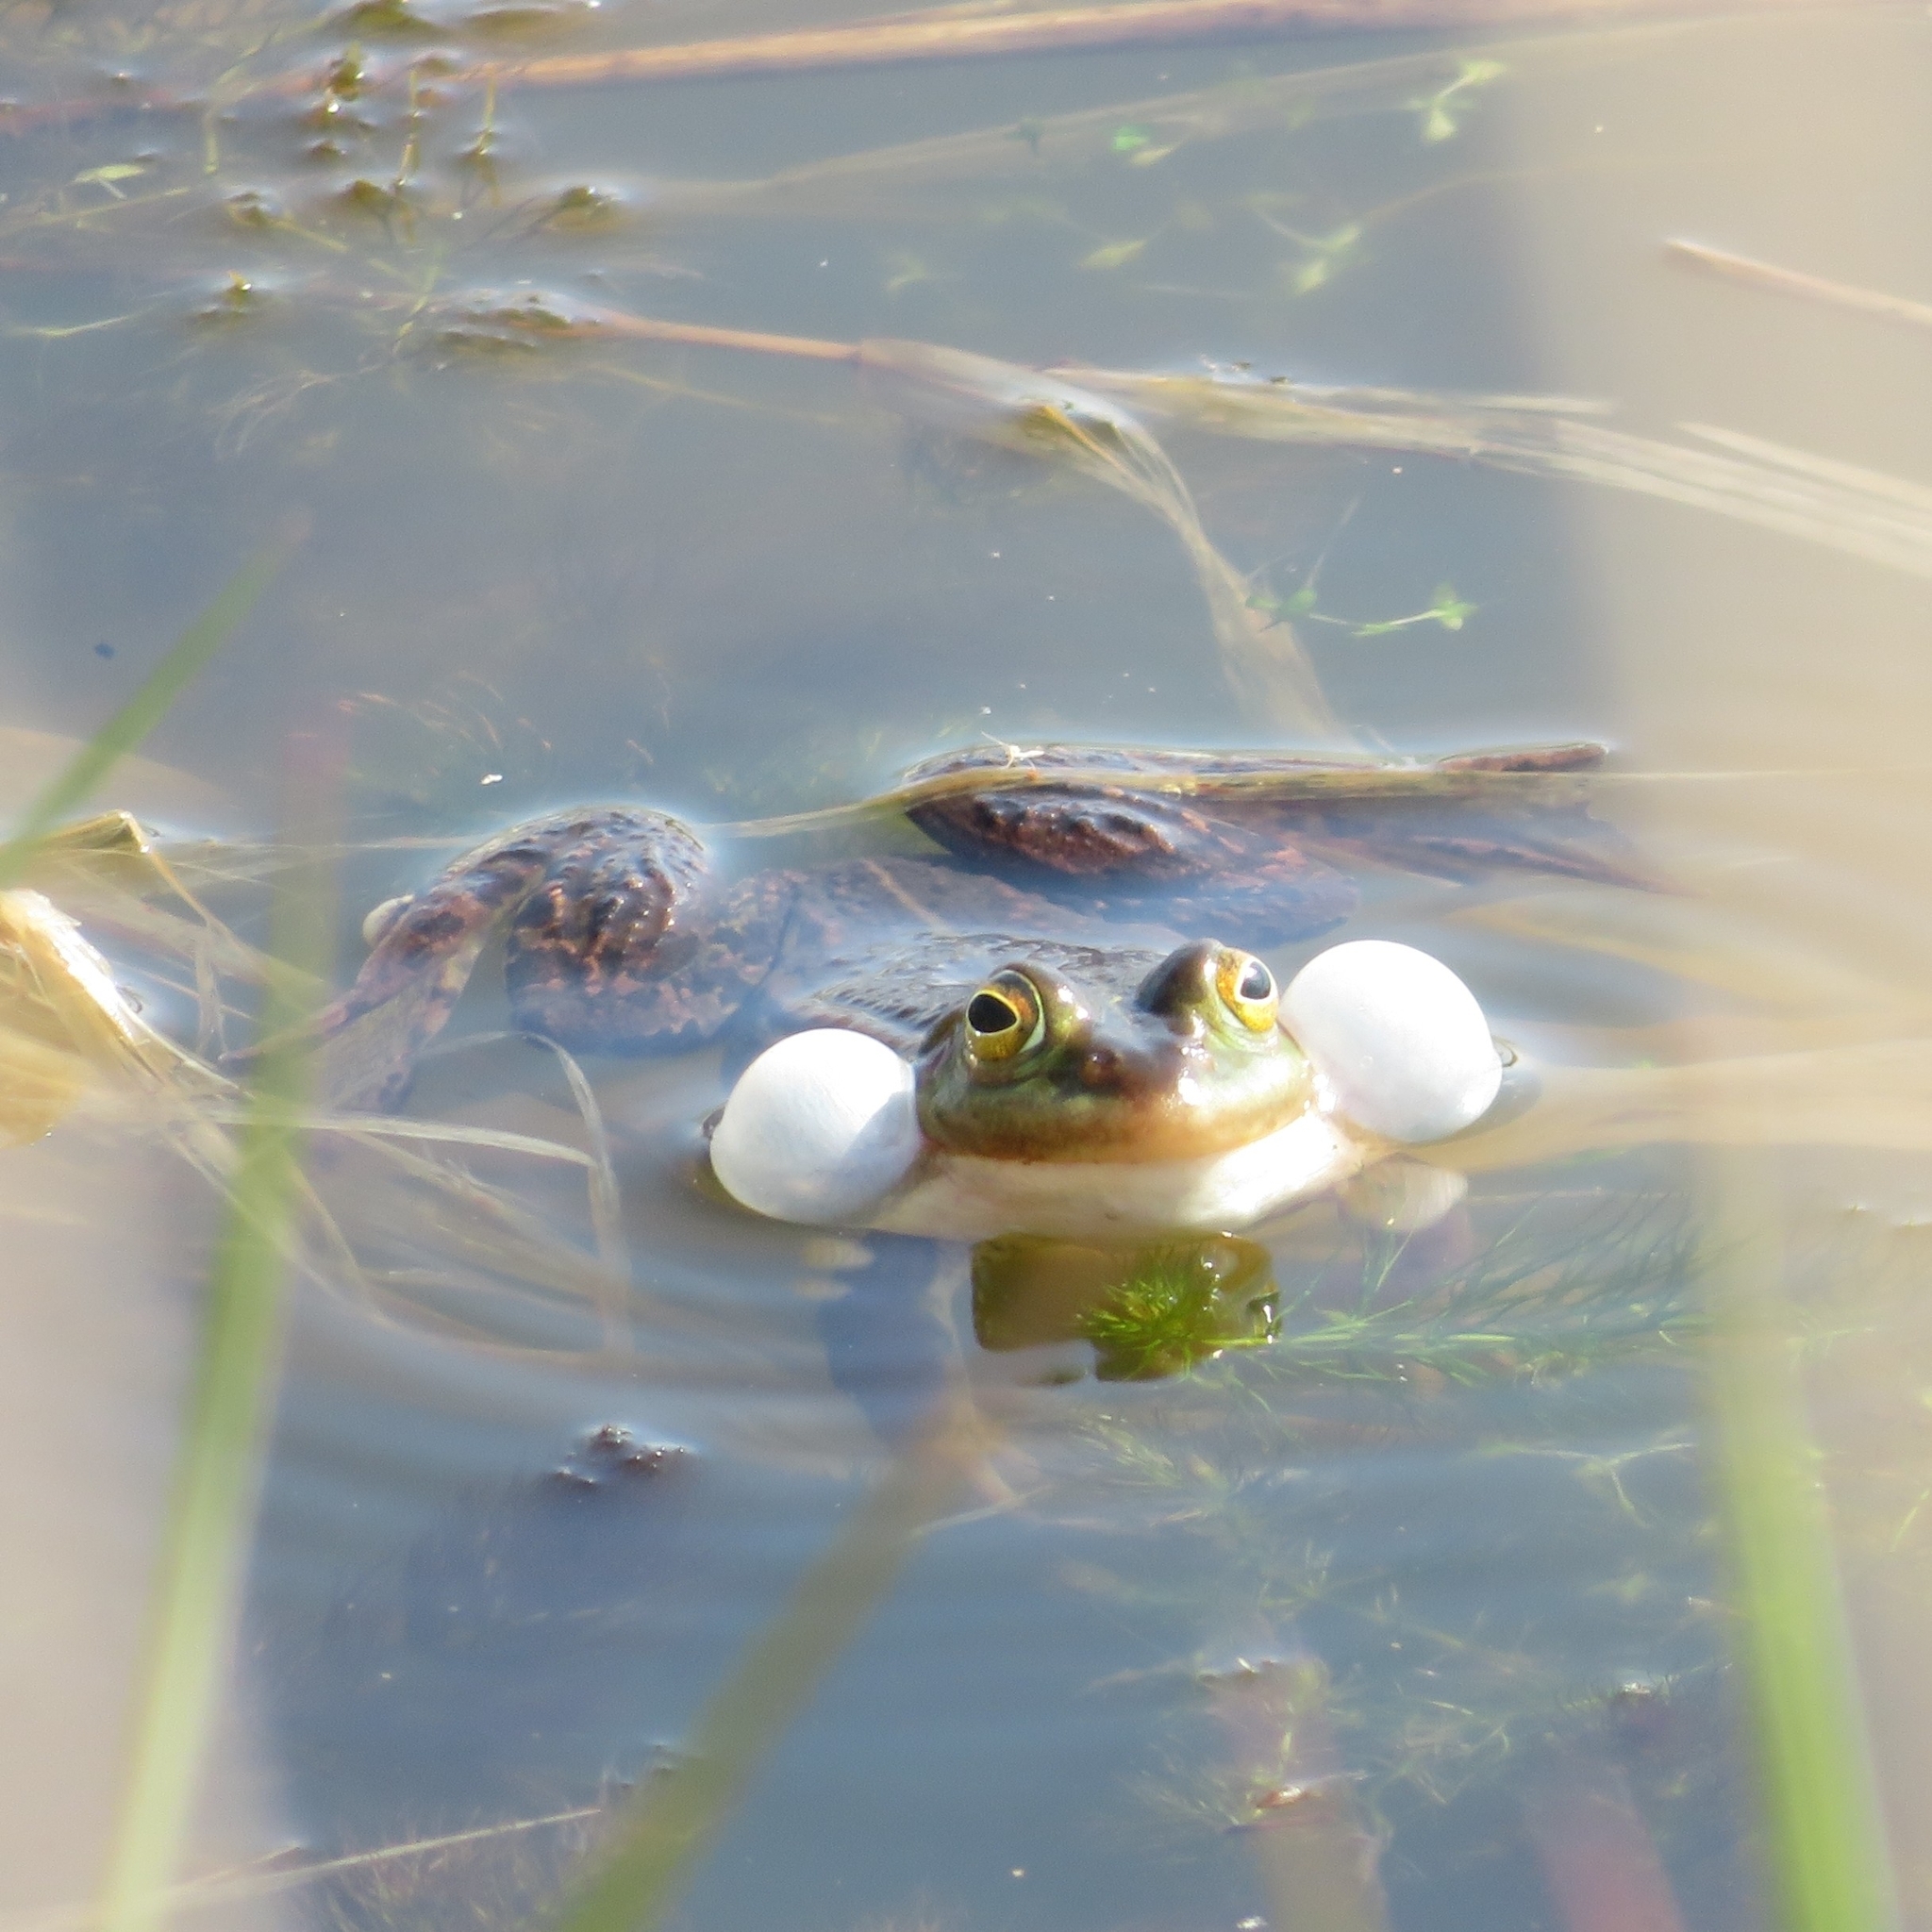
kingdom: Animalia
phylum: Chordata
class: Amphibia
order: Anura
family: Ranidae
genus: Pelophylax
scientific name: Pelophylax lessonae
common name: Pool frog
